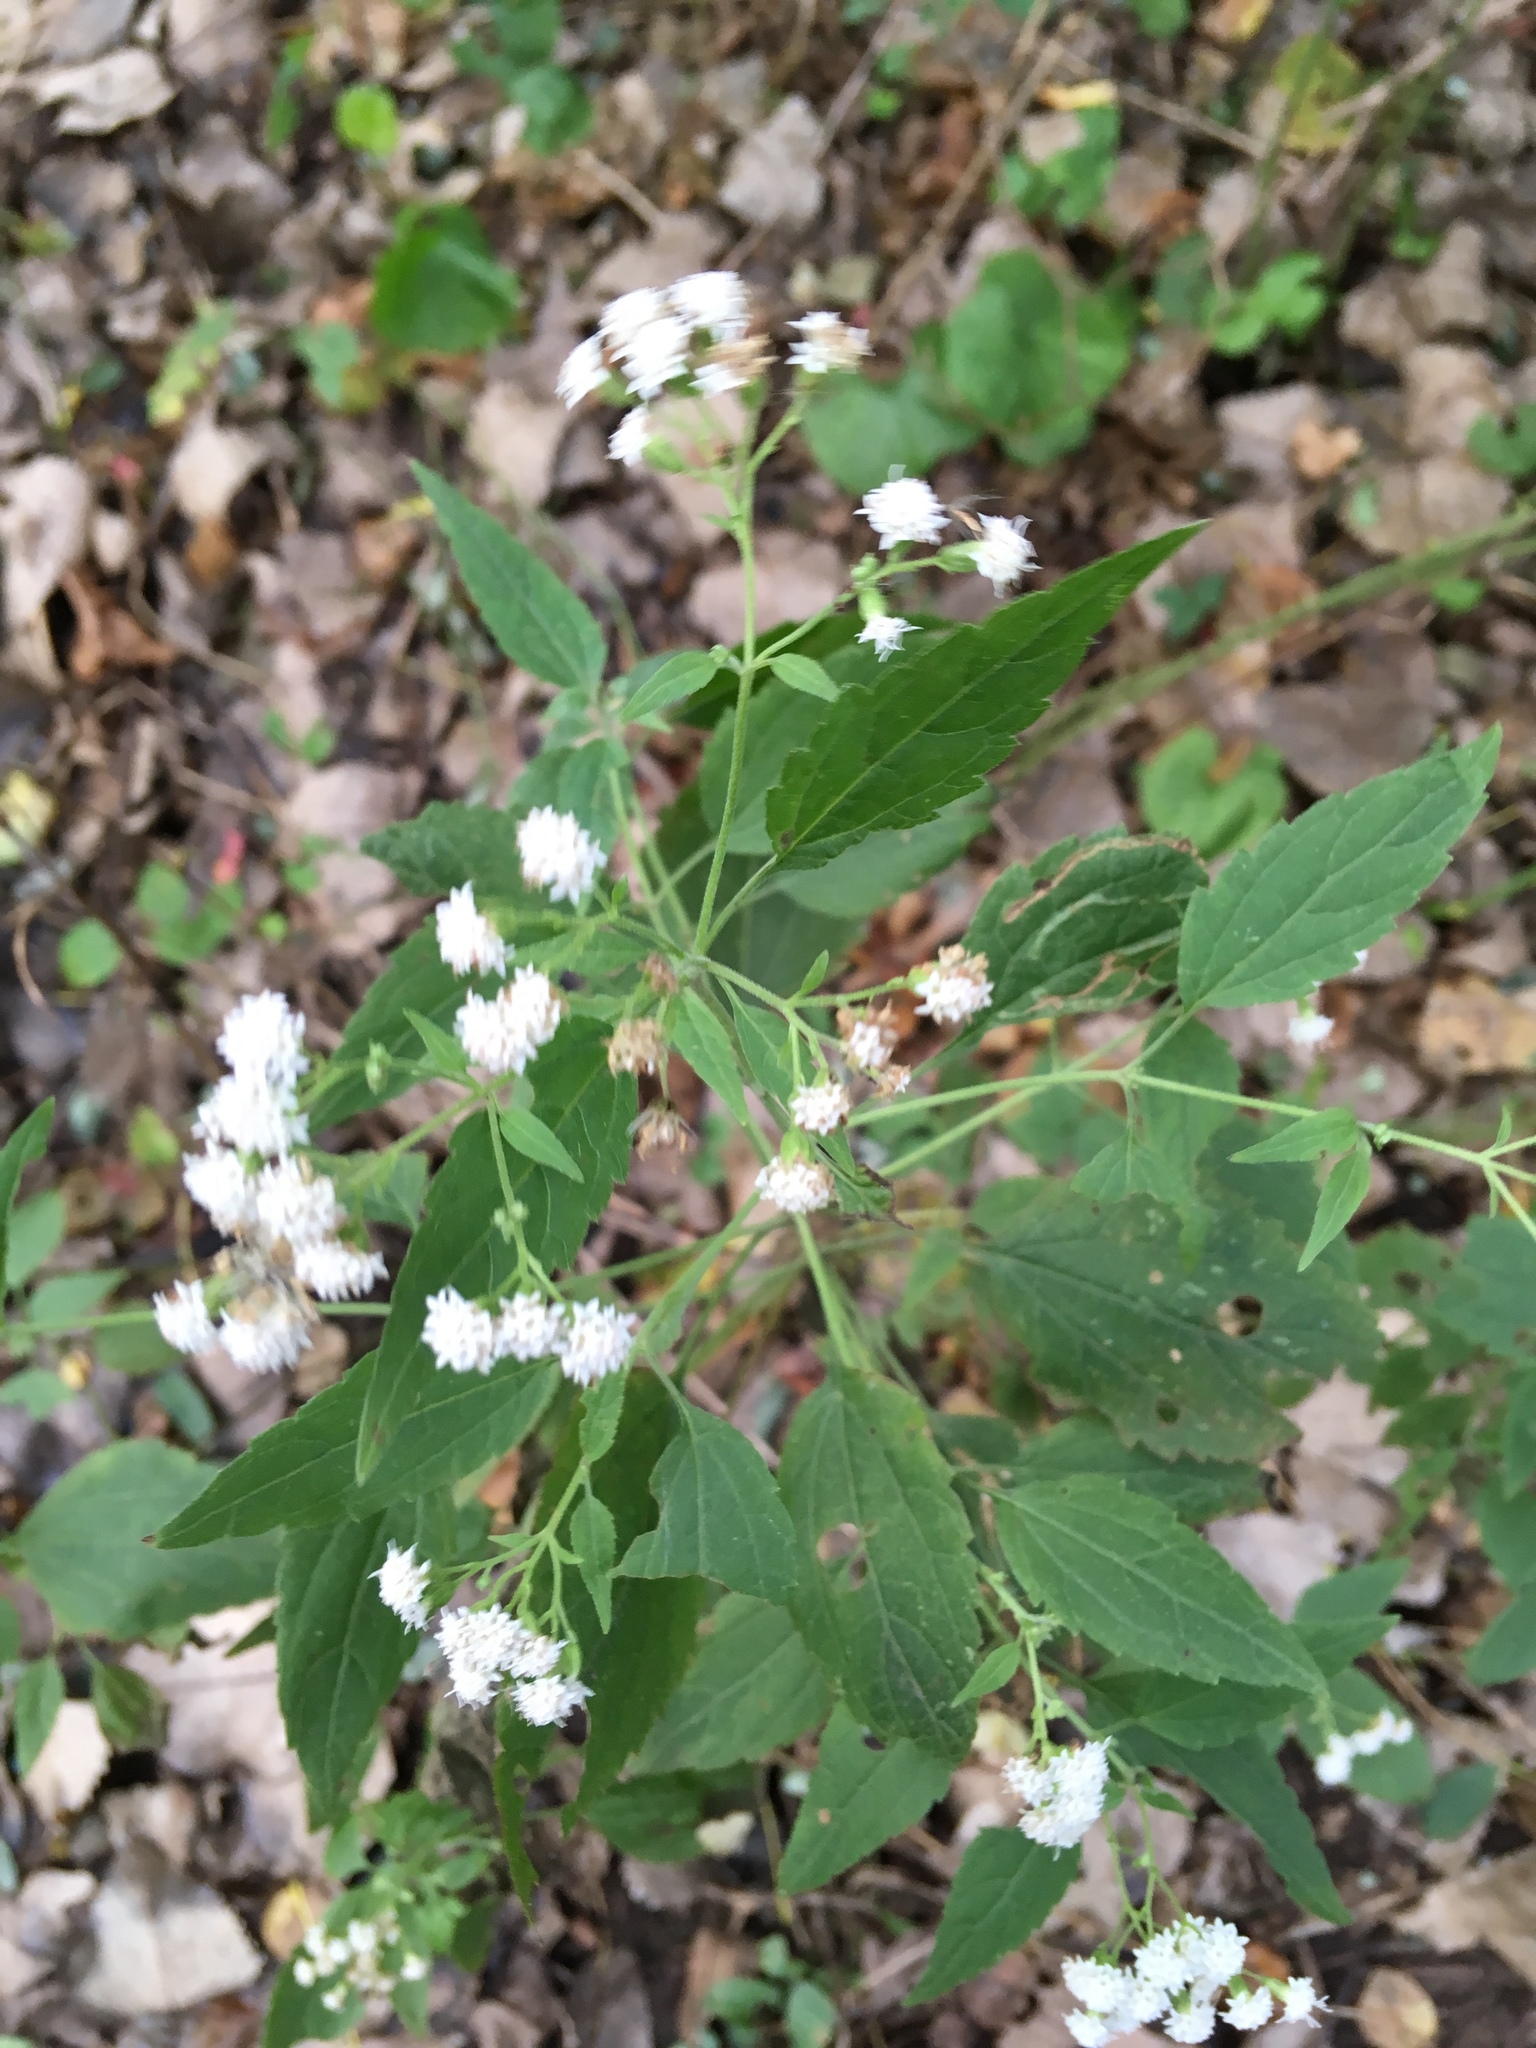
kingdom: Plantae
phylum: Tracheophyta
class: Magnoliopsida
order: Asterales
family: Asteraceae
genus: Ageratina
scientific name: Ageratina altissima
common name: White snakeroot
